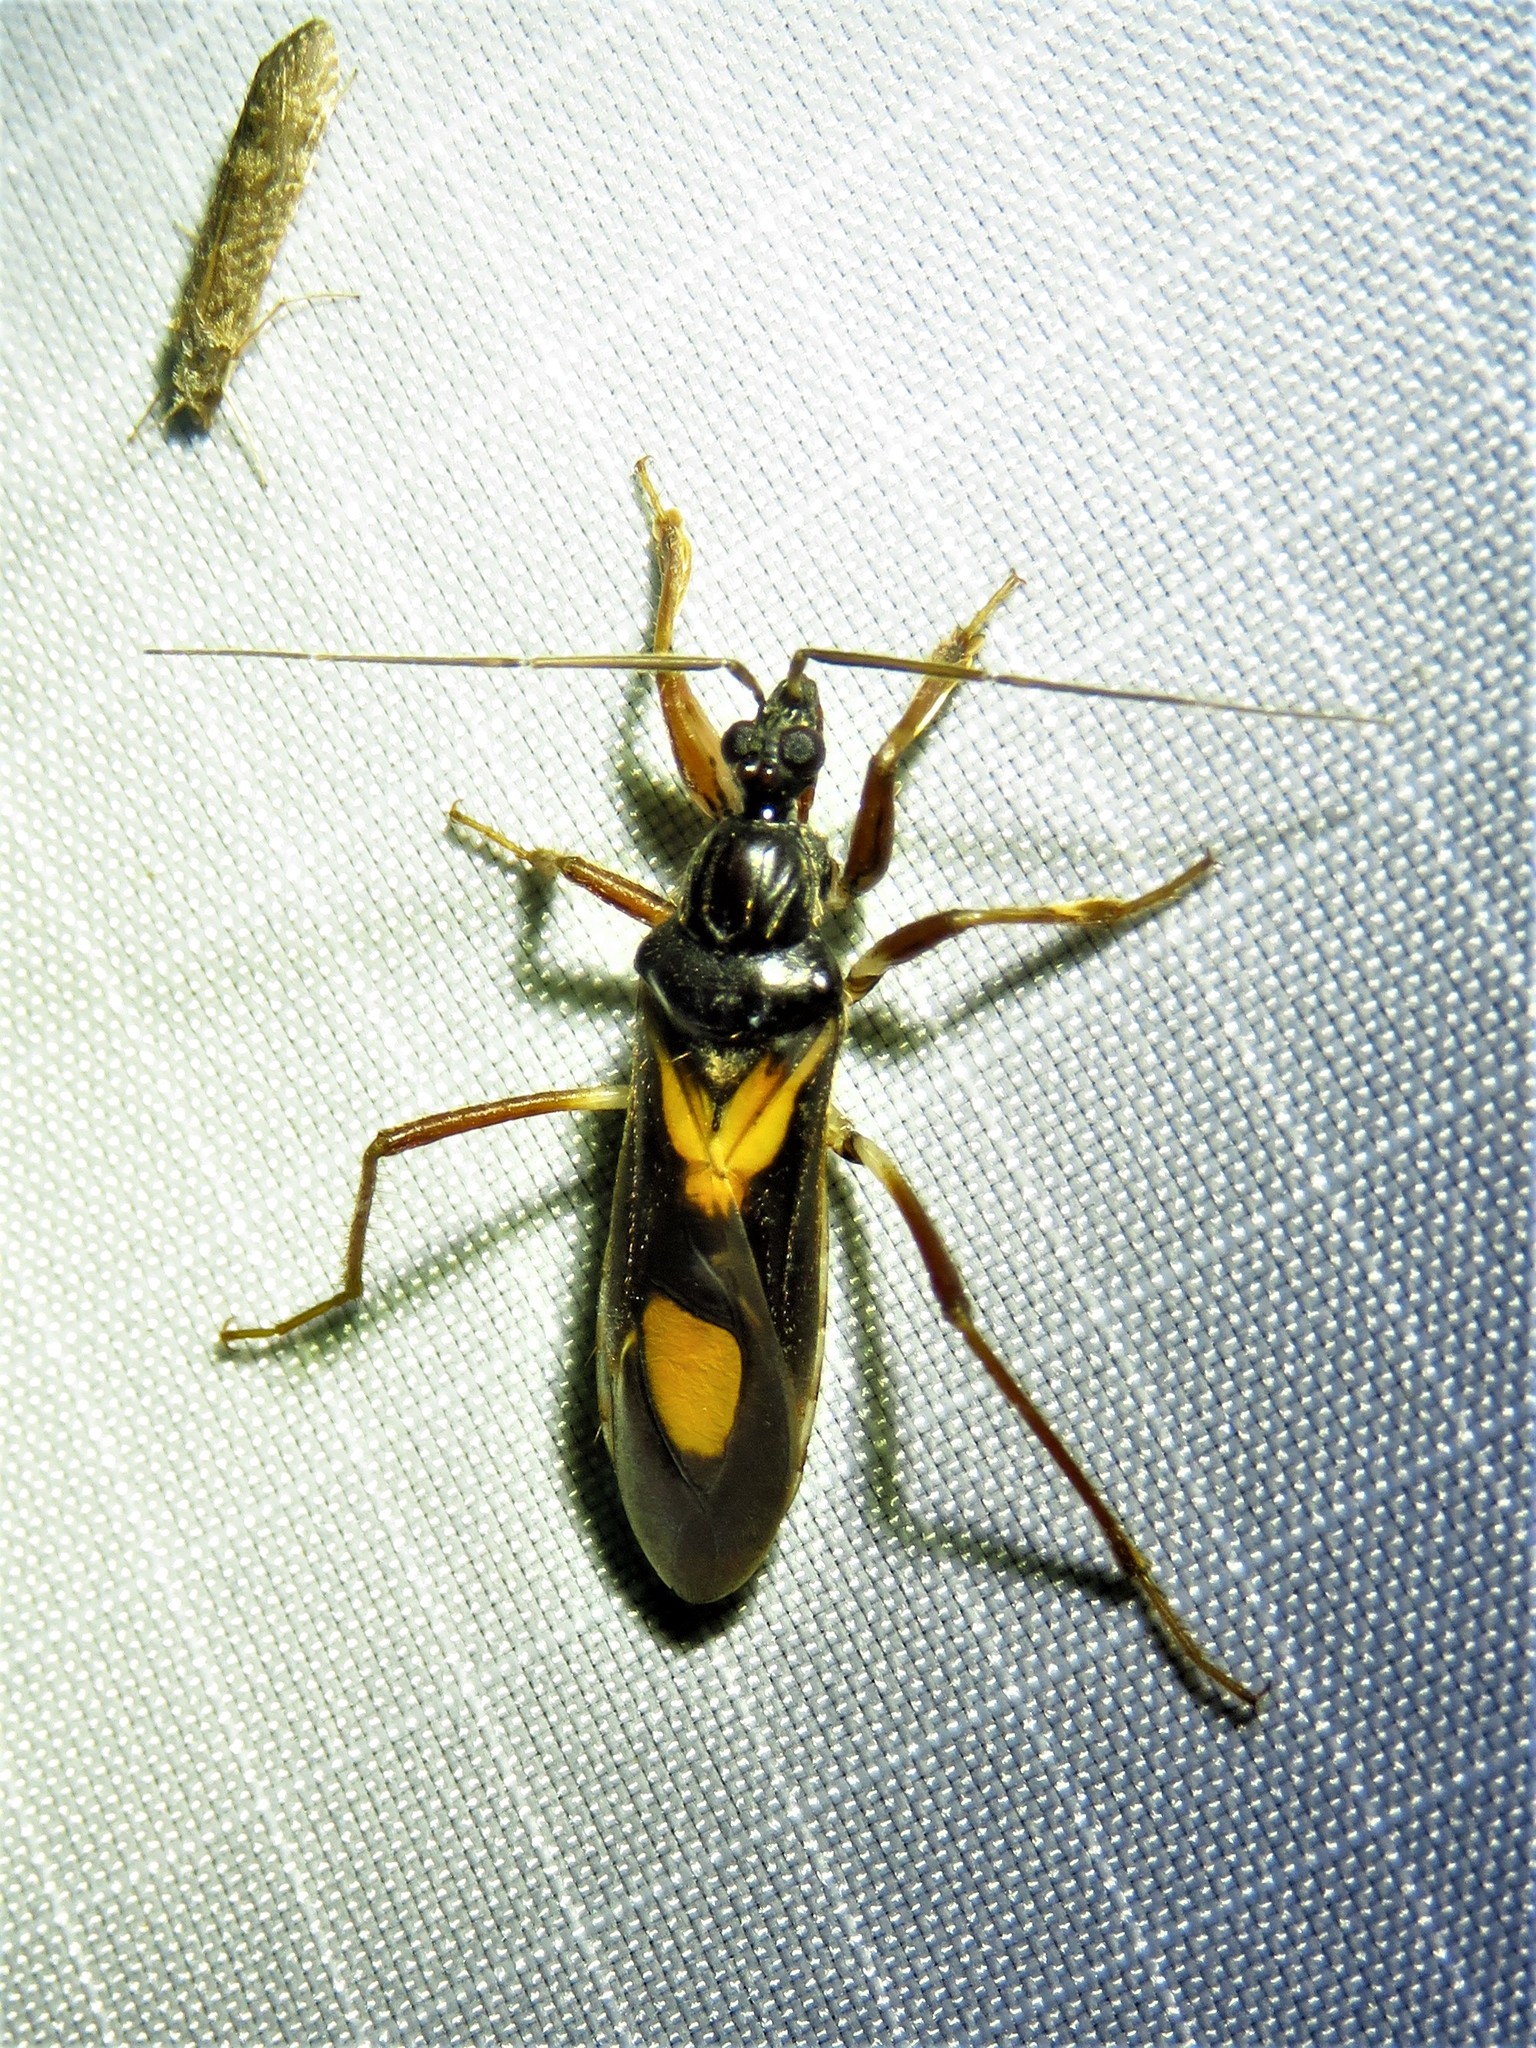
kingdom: Animalia
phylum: Arthropoda
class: Insecta
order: Hemiptera
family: Reduviidae
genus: Rasahus
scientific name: Rasahus hamatus
